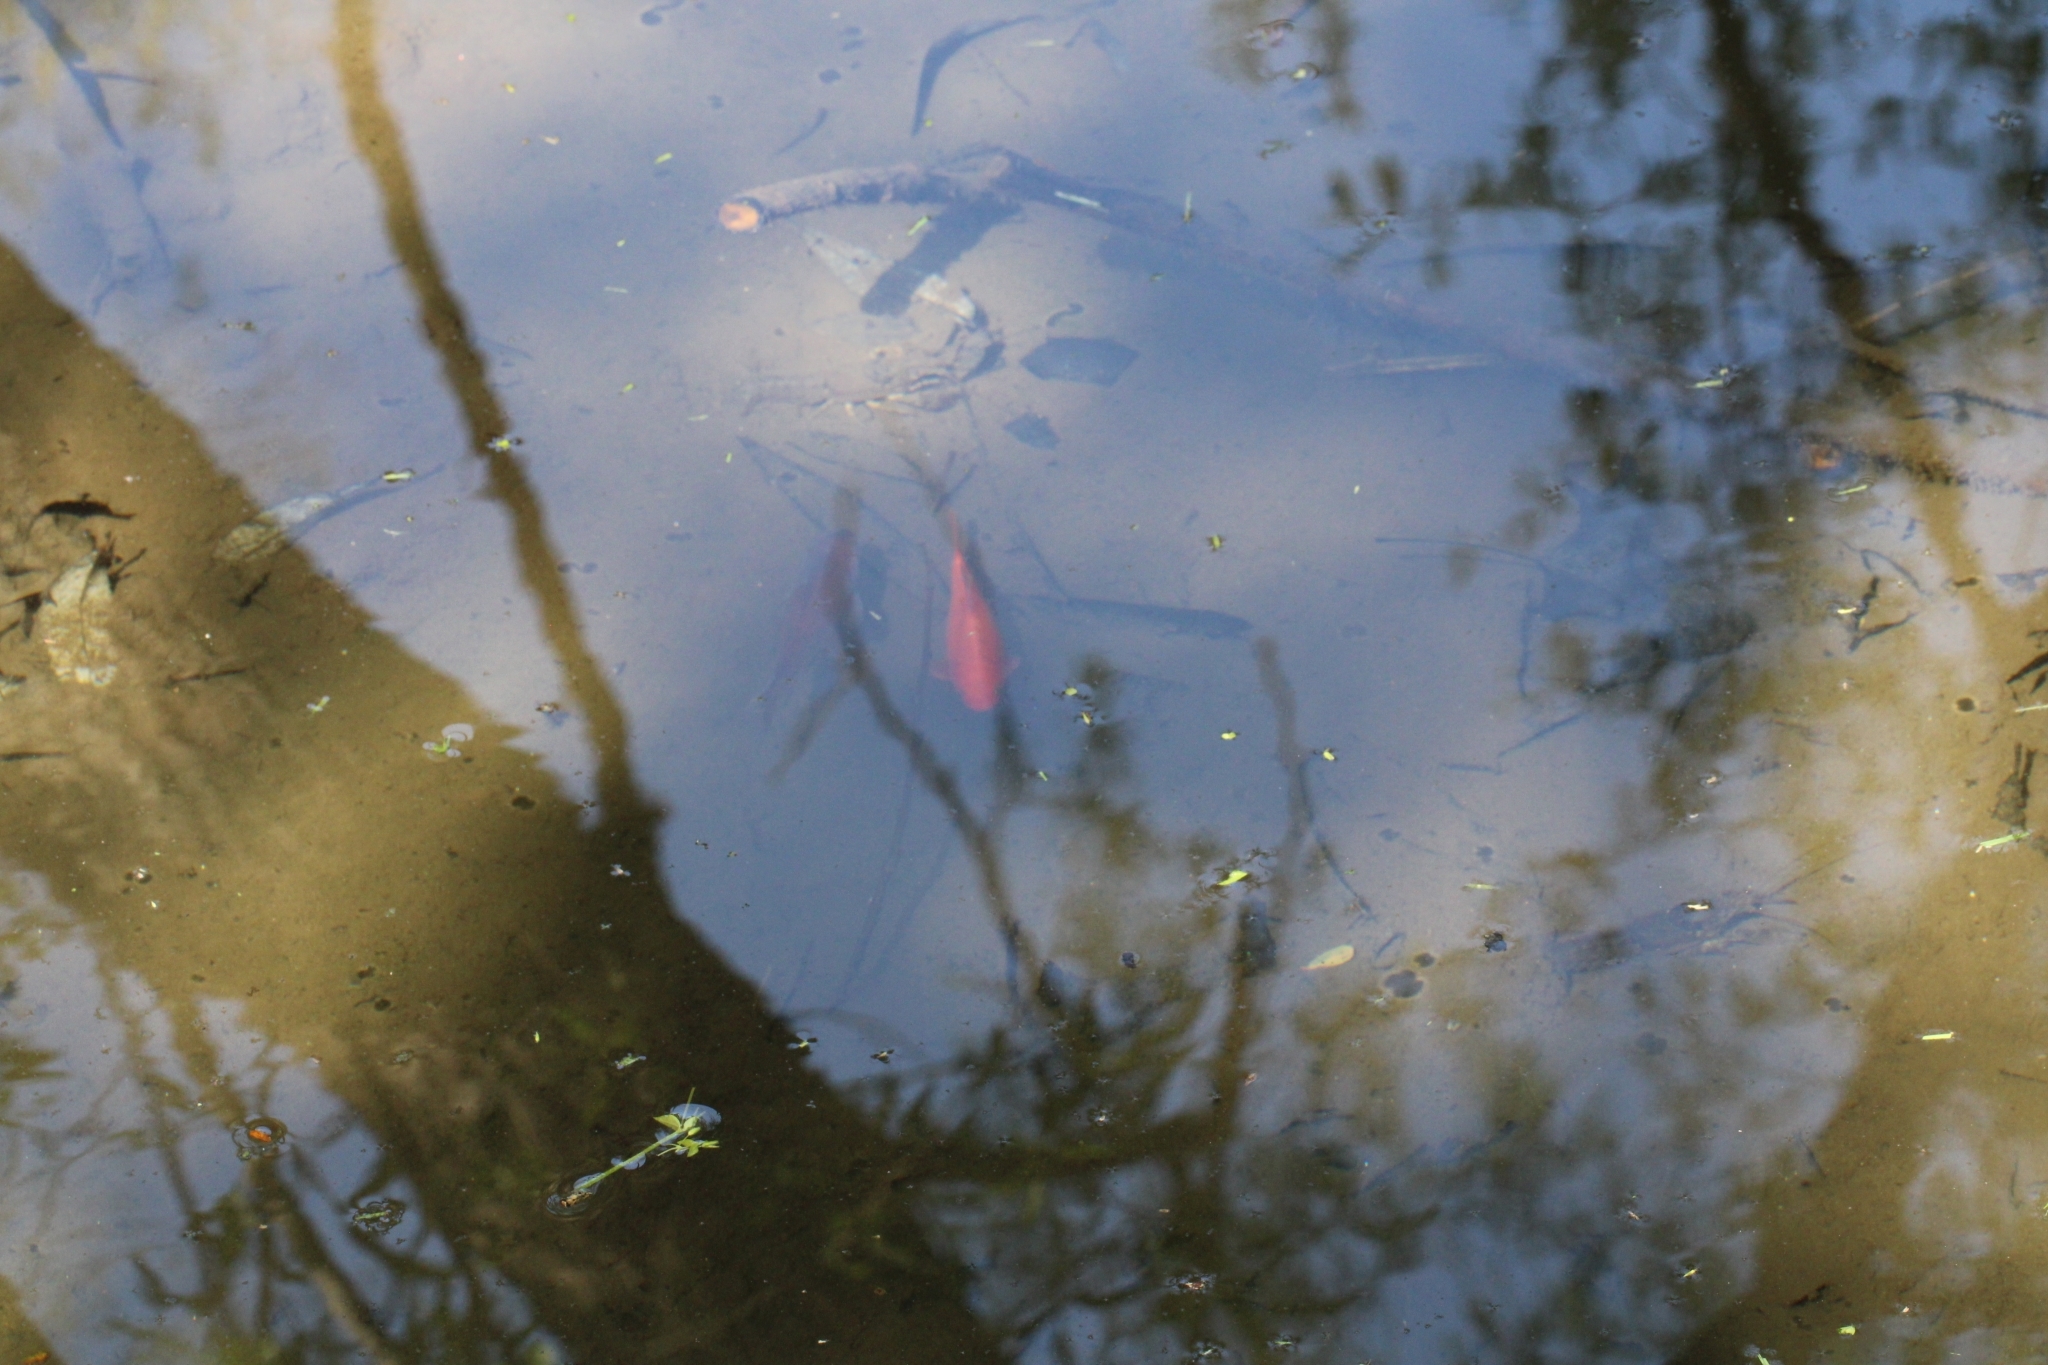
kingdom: Animalia
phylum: Chordata
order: Cypriniformes
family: Cyprinidae
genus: Carassius
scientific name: Carassius auratus
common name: Goldfish
